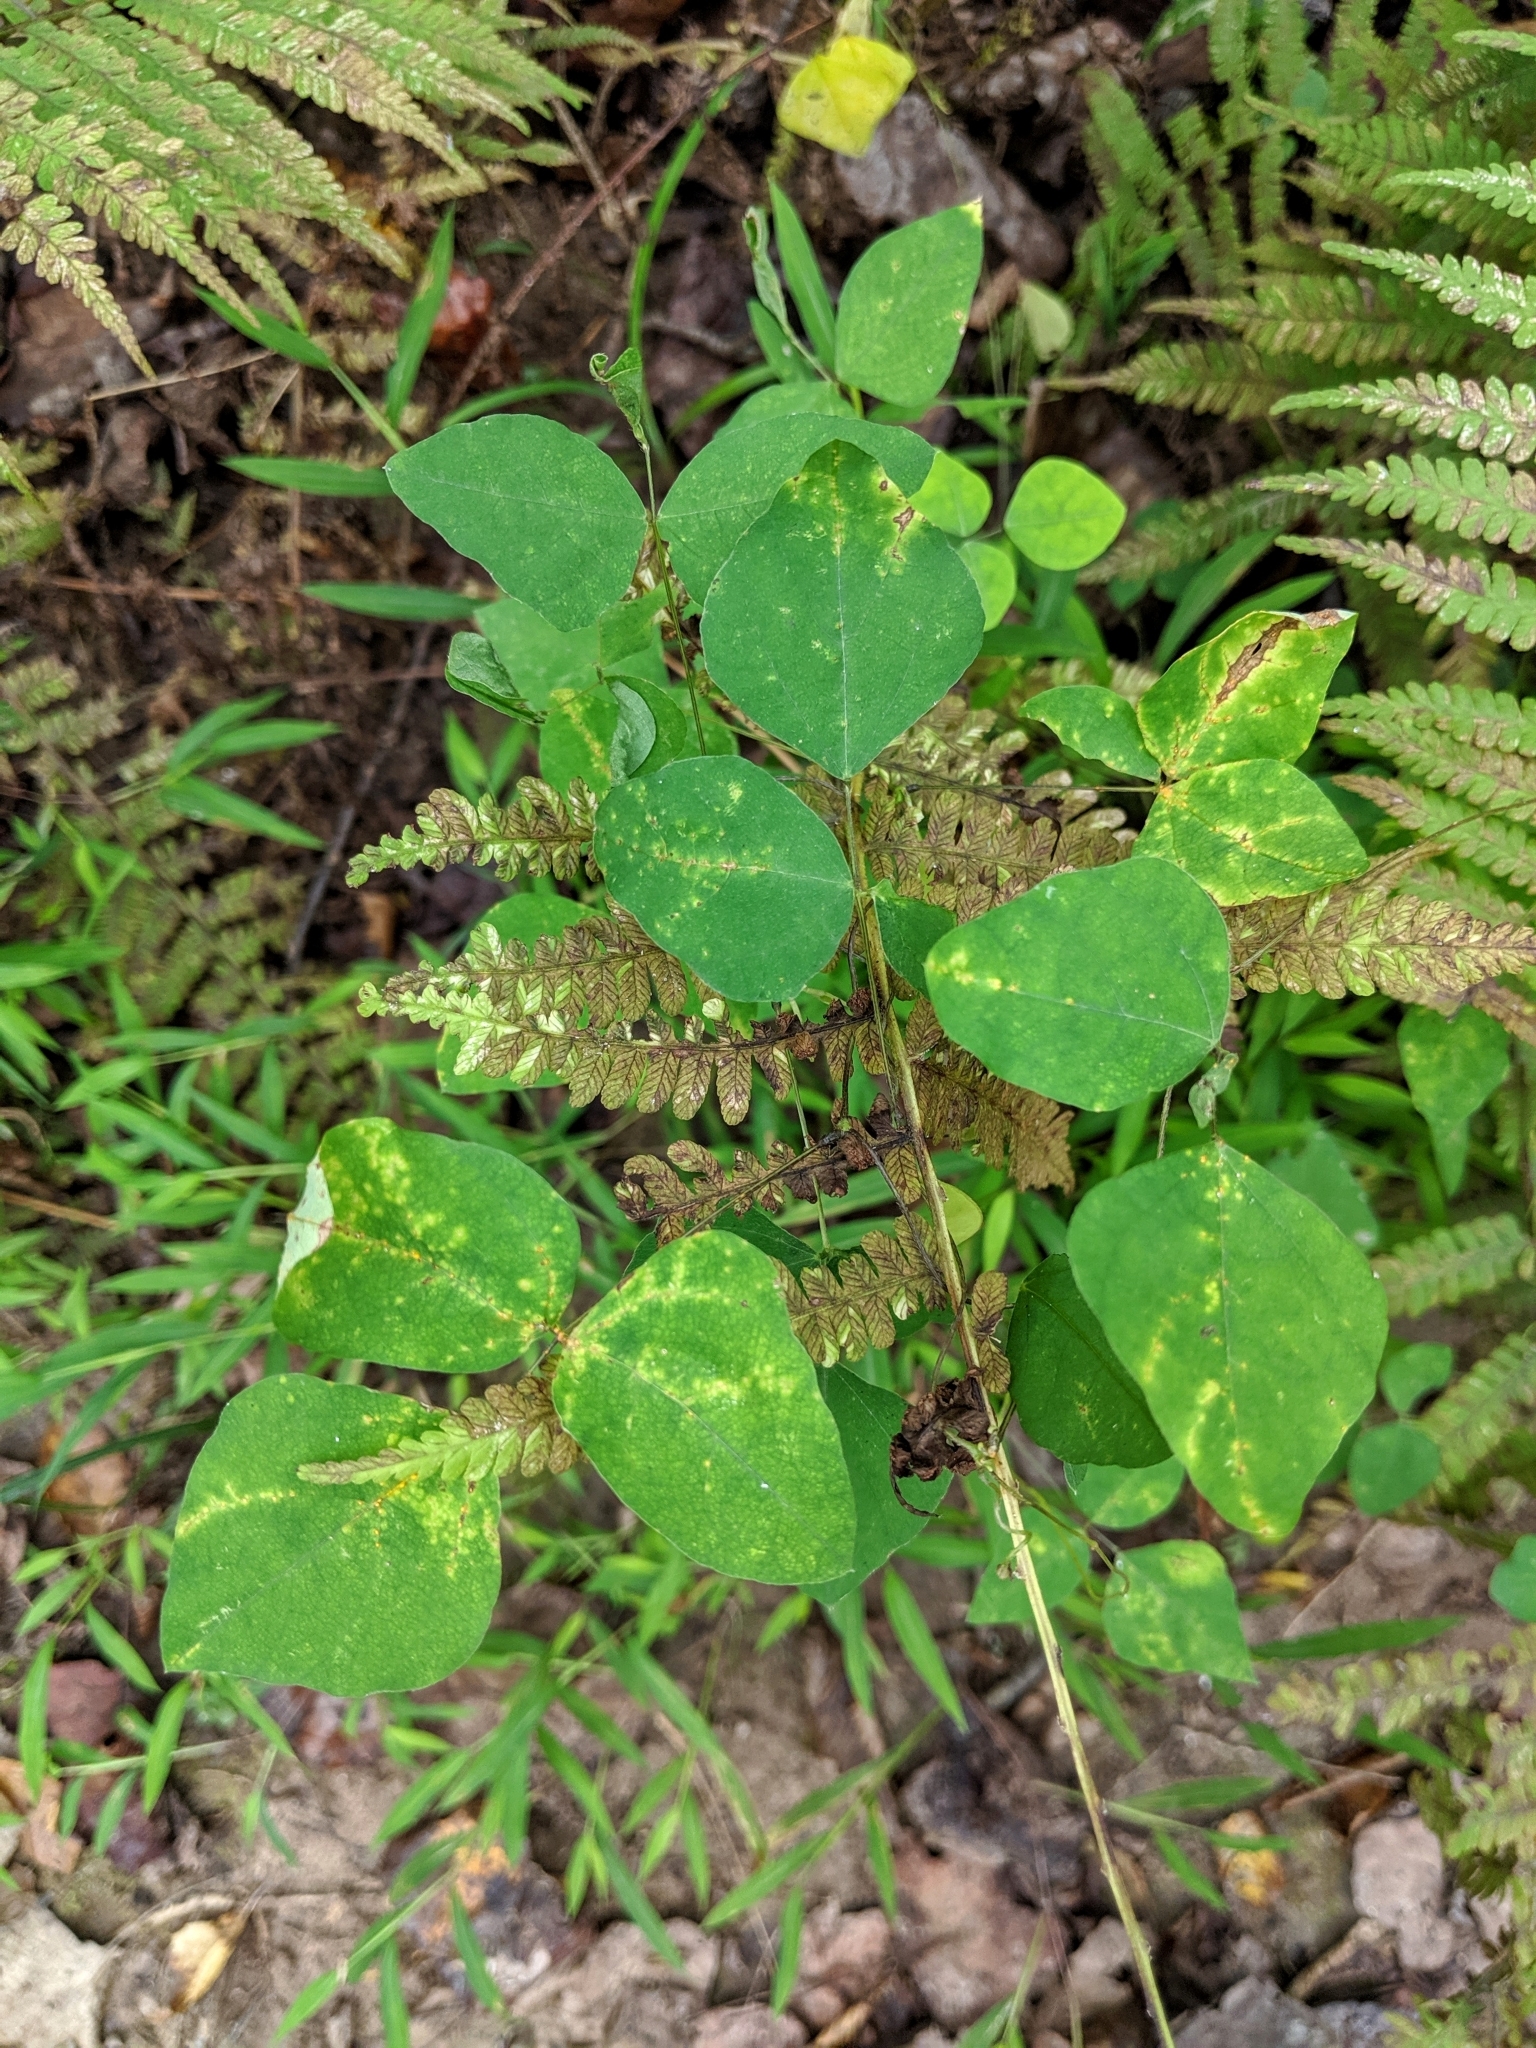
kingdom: Plantae
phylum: Tracheophyta
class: Magnoliopsida
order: Fabales
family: Fabaceae
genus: Amphicarpaea
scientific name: Amphicarpaea bracteata
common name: American hog peanut
